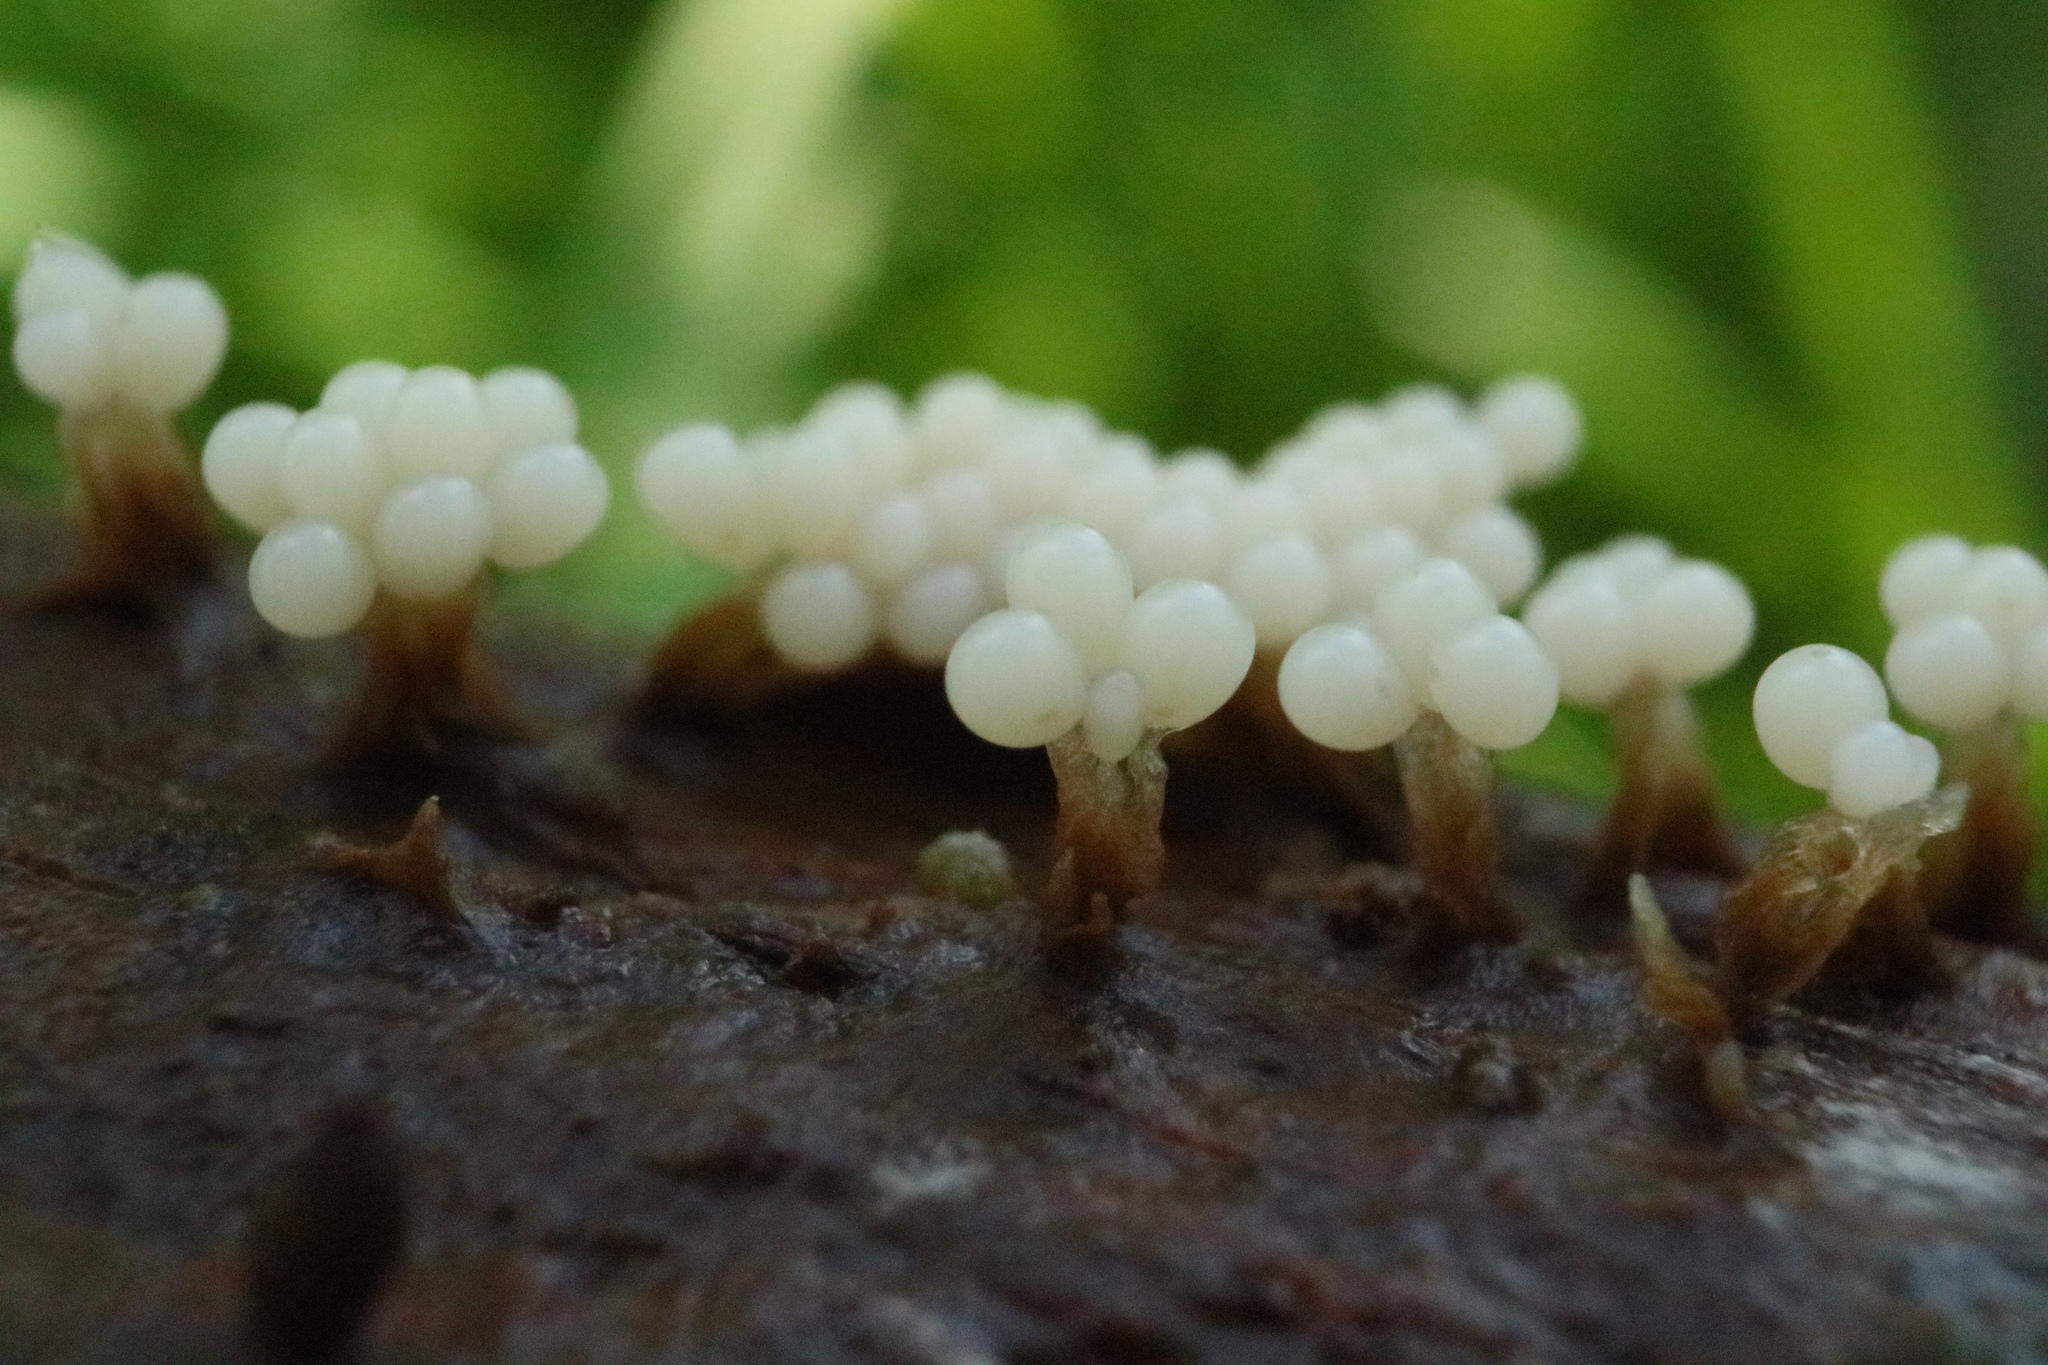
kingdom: Protozoa
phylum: Mycetozoa
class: Myxomycetes
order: Trichiales
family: Trichiaceae
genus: Oligonema
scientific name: Oligonema verrucosum
